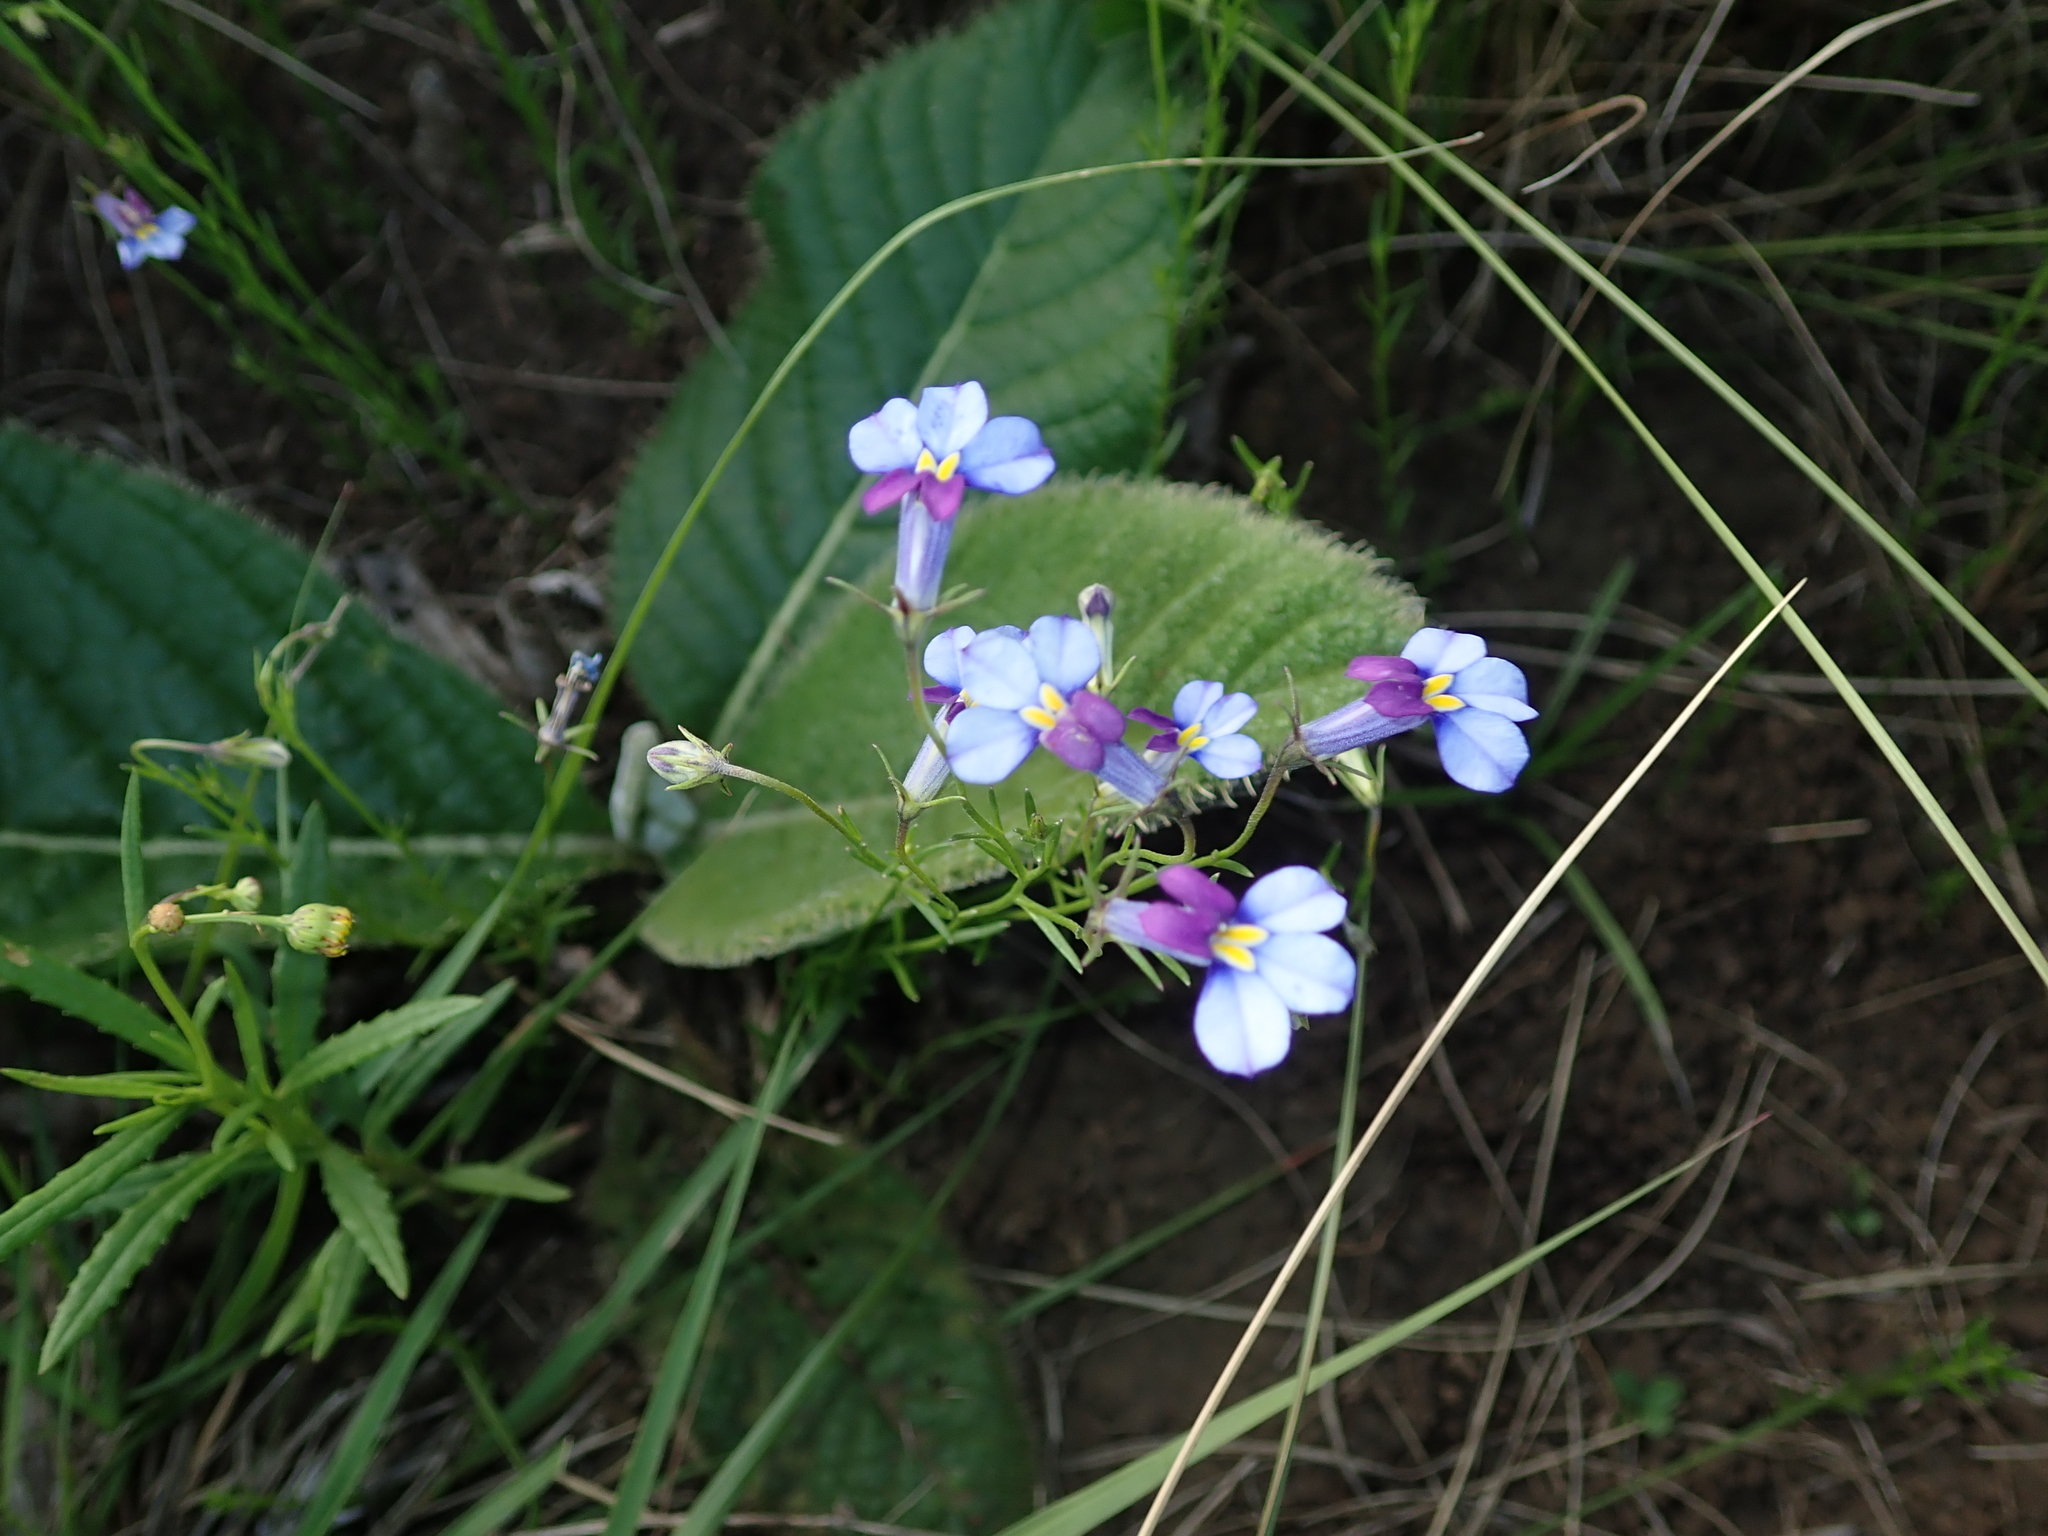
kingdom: Plantae
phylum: Tracheophyta
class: Magnoliopsida
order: Asterales
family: Campanulaceae
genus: Monopsis
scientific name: Monopsis decipiens
